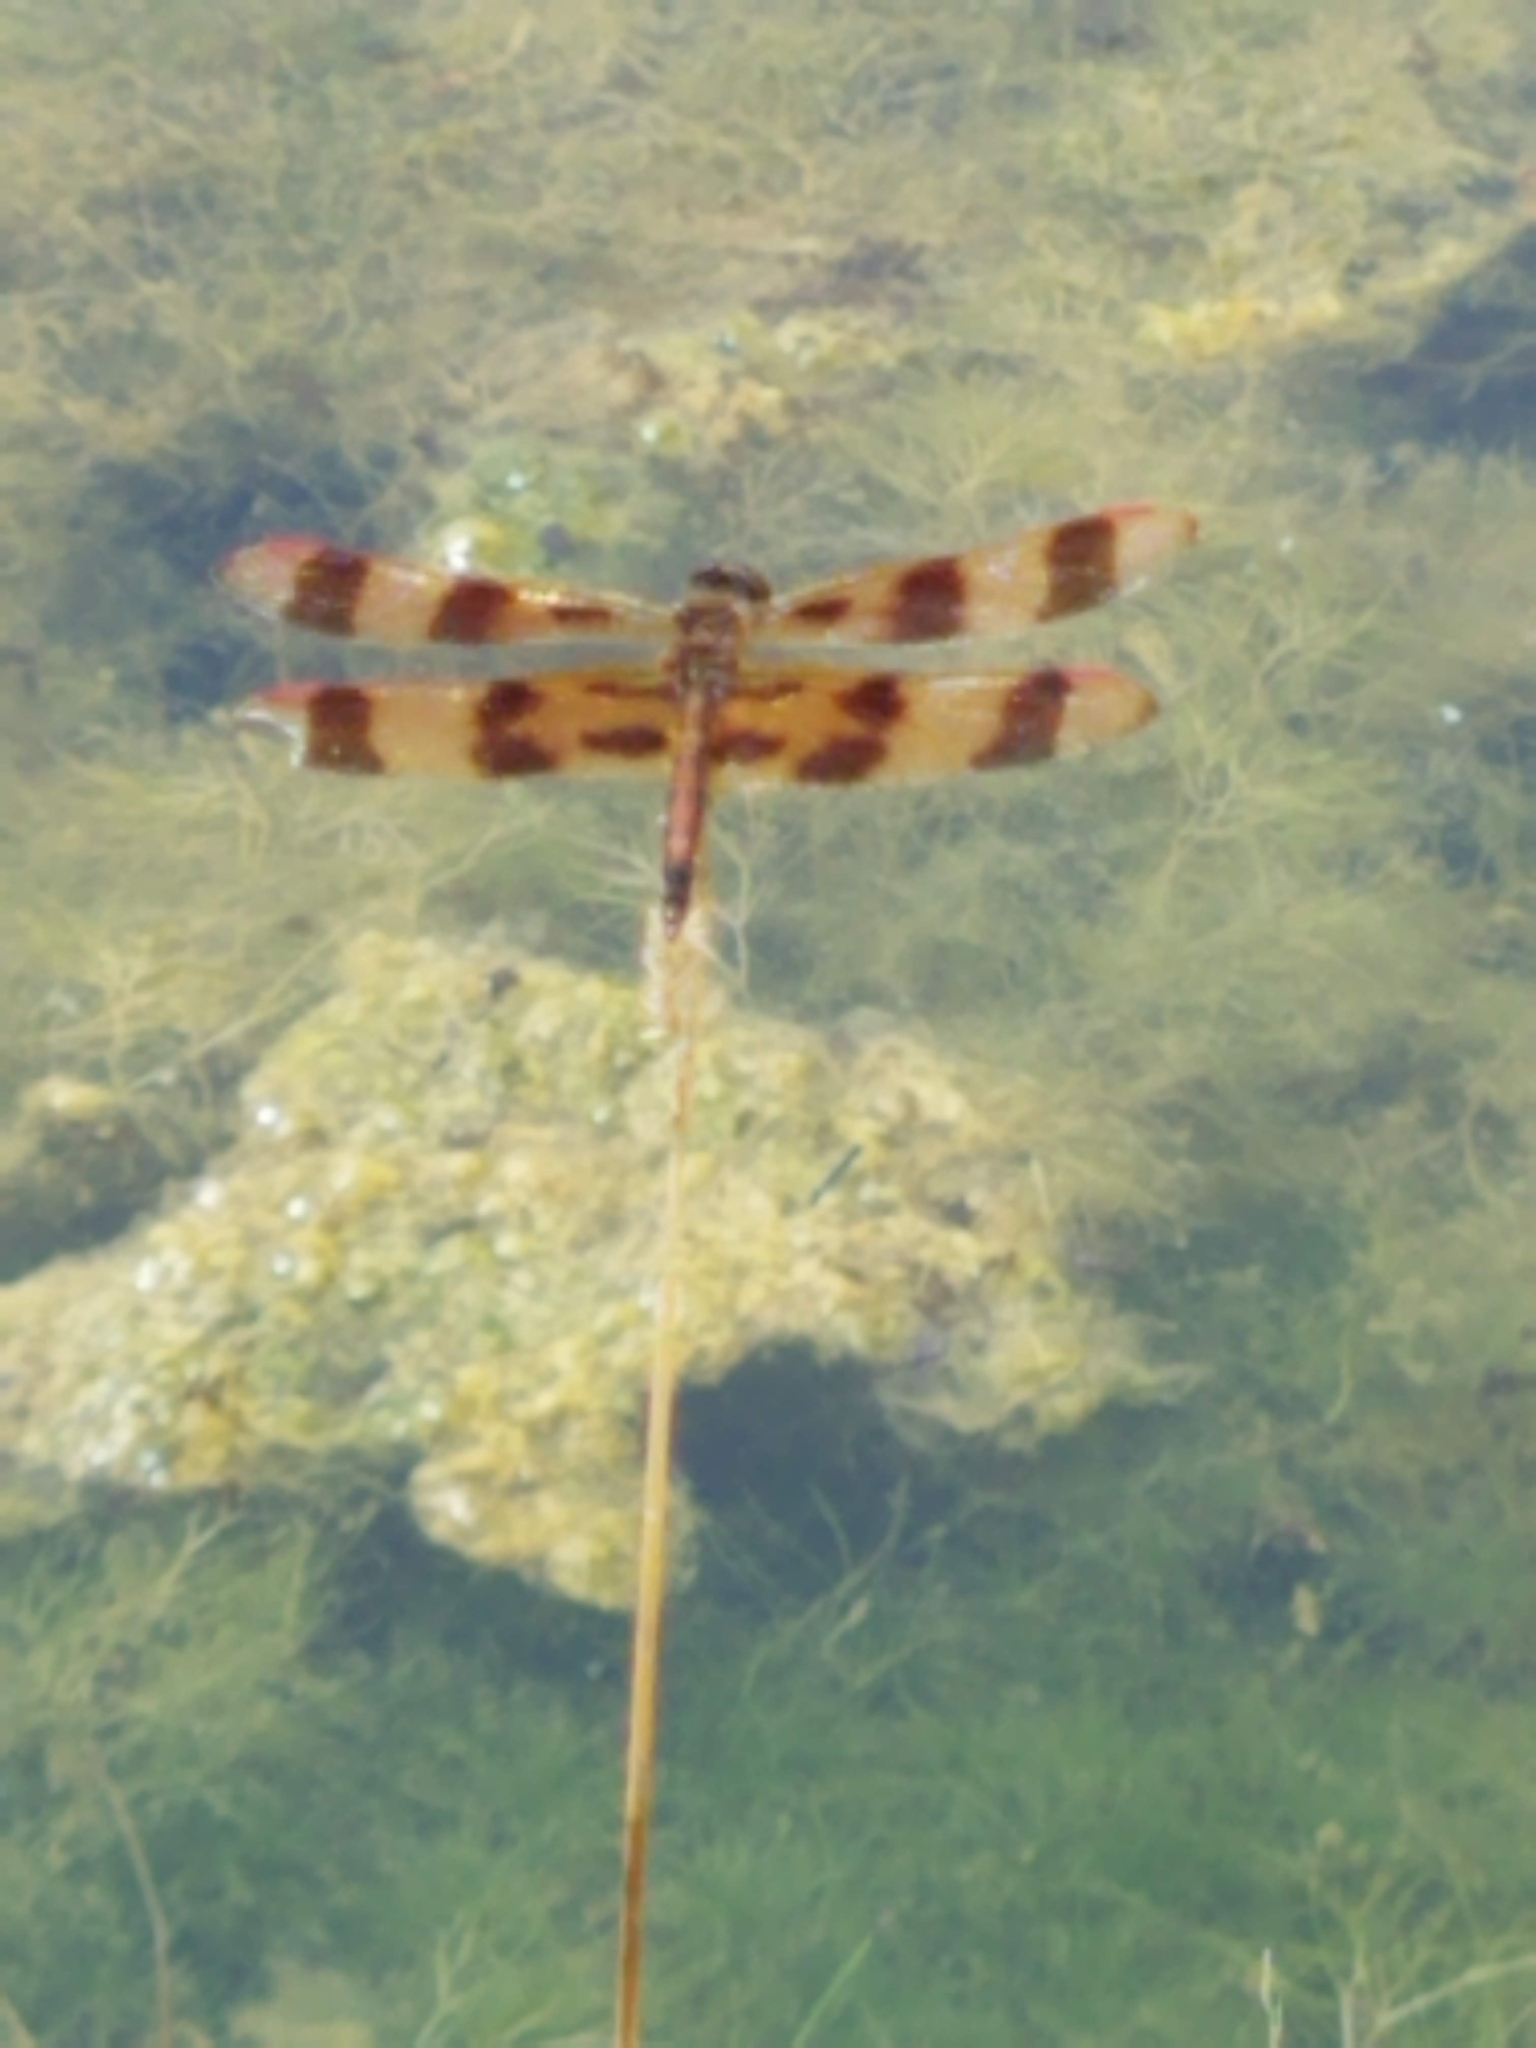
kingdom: Animalia
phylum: Arthropoda
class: Insecta
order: Odonata
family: Libellulidae
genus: Celithemis
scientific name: Celithemis eponina
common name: Halloween pennant
